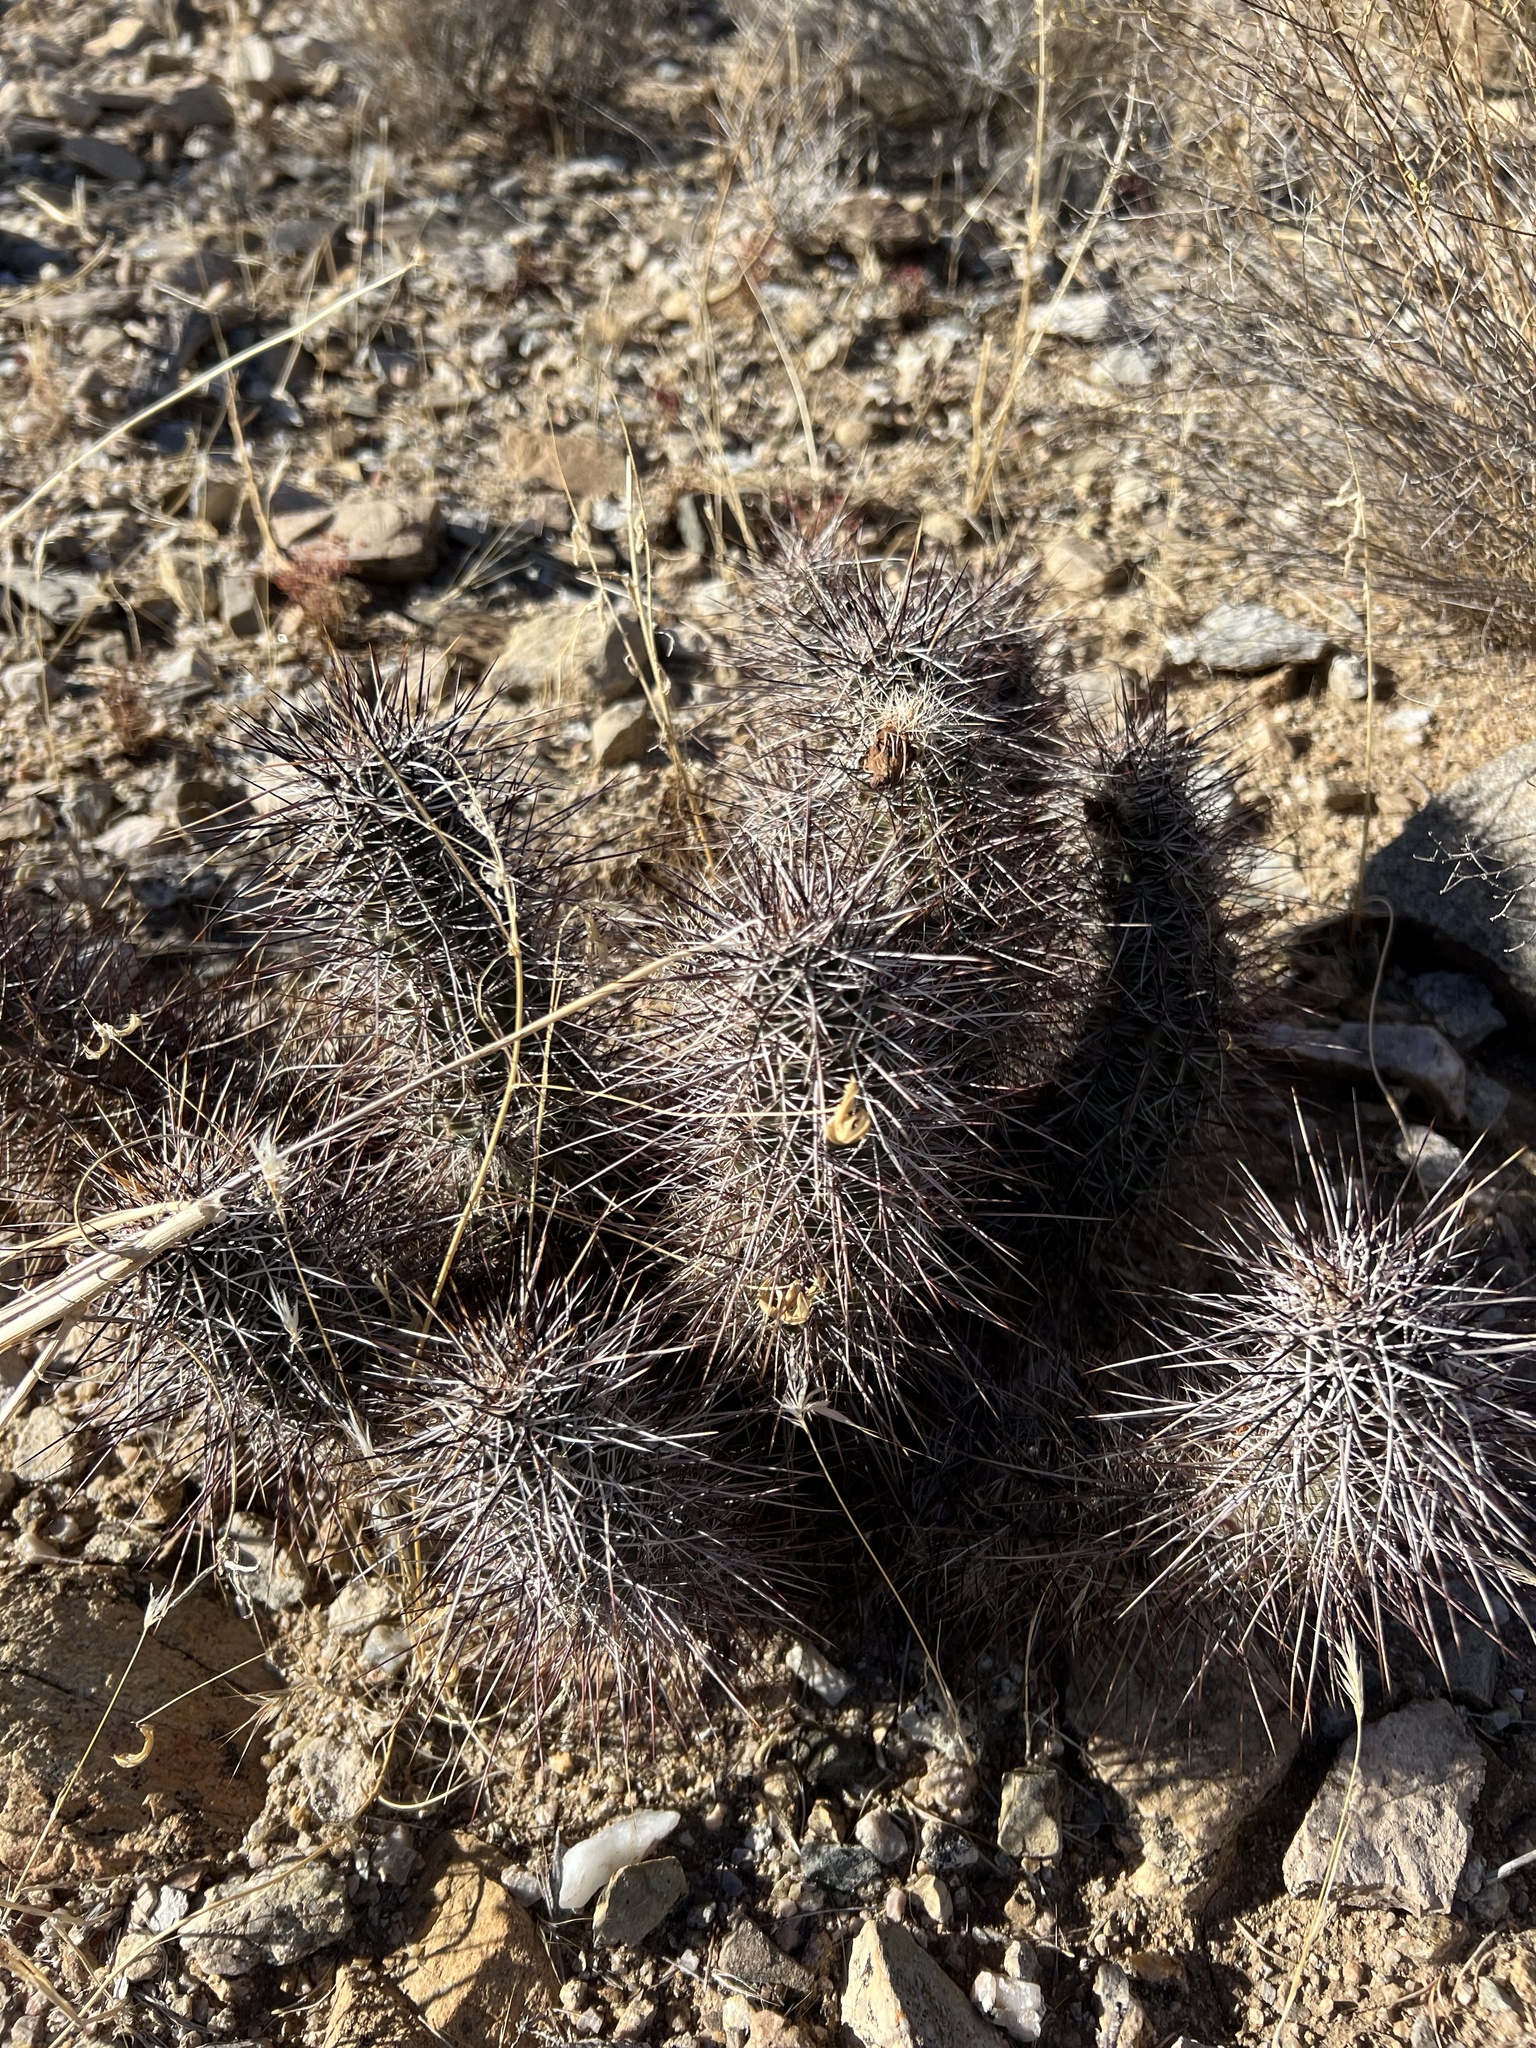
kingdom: Plantae
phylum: Tracheophyta
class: Magnoliopsida
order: Caryophyllales
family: Cactaceae
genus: Echinocereus
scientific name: Echinocereus engelmannii
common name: Engelmann's hedgehog cactus
